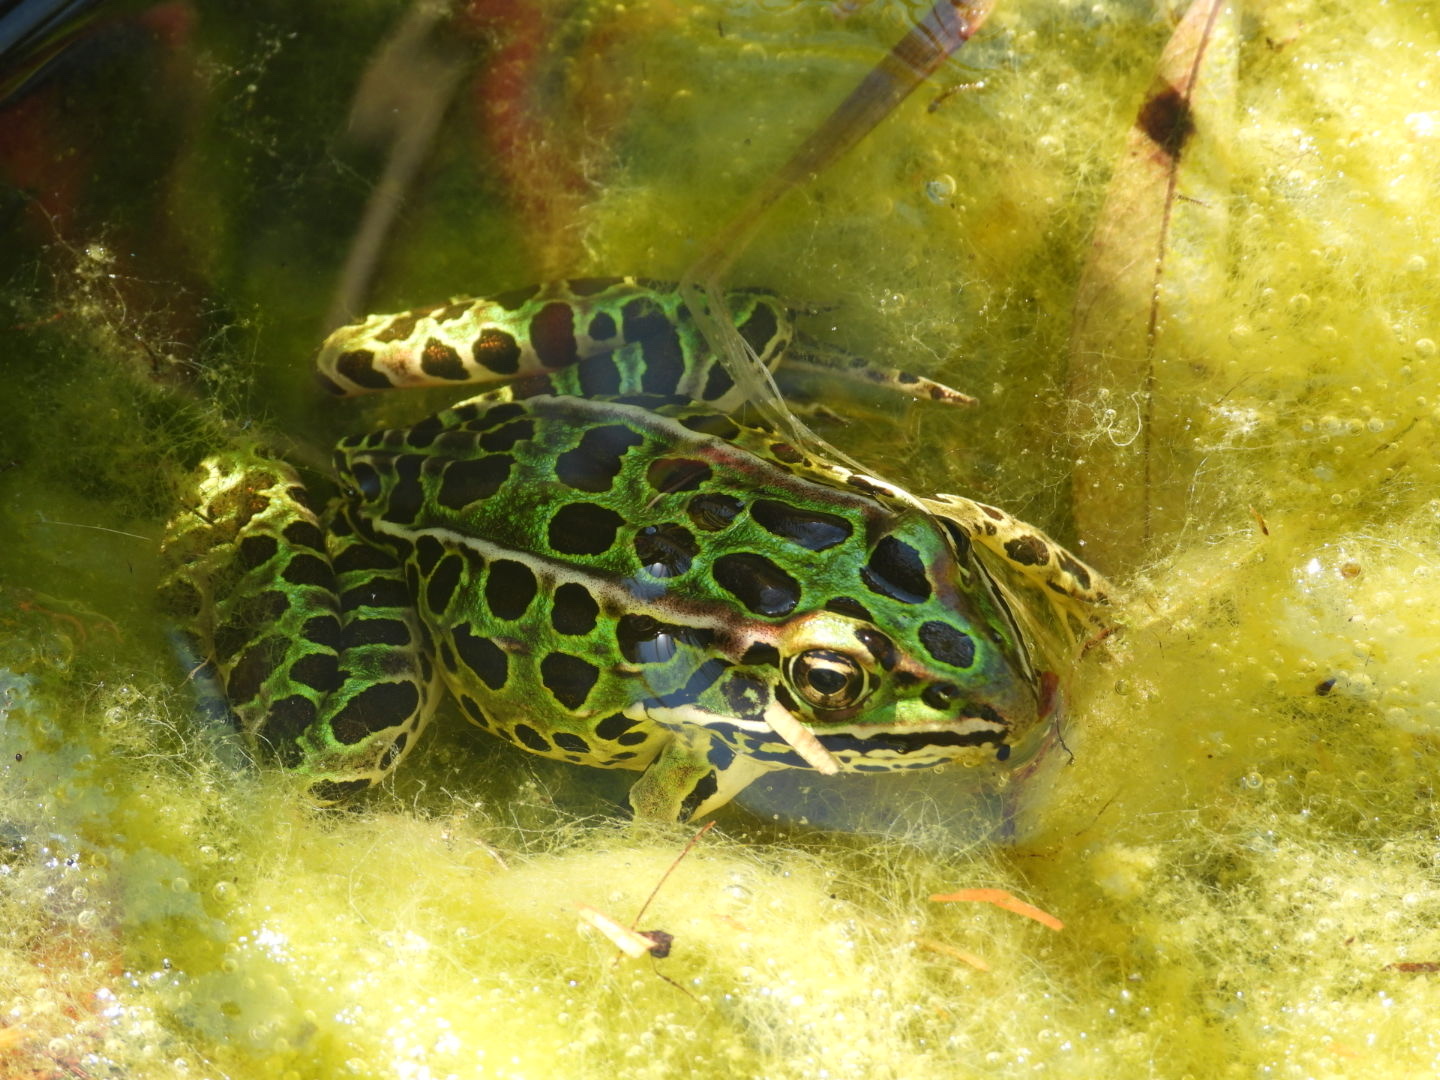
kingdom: Animalia
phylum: Chordata
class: Amphibia
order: Anura
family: Ranidae
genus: Lithobates
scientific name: Lithobates pipiens
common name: Northern leopard frog
